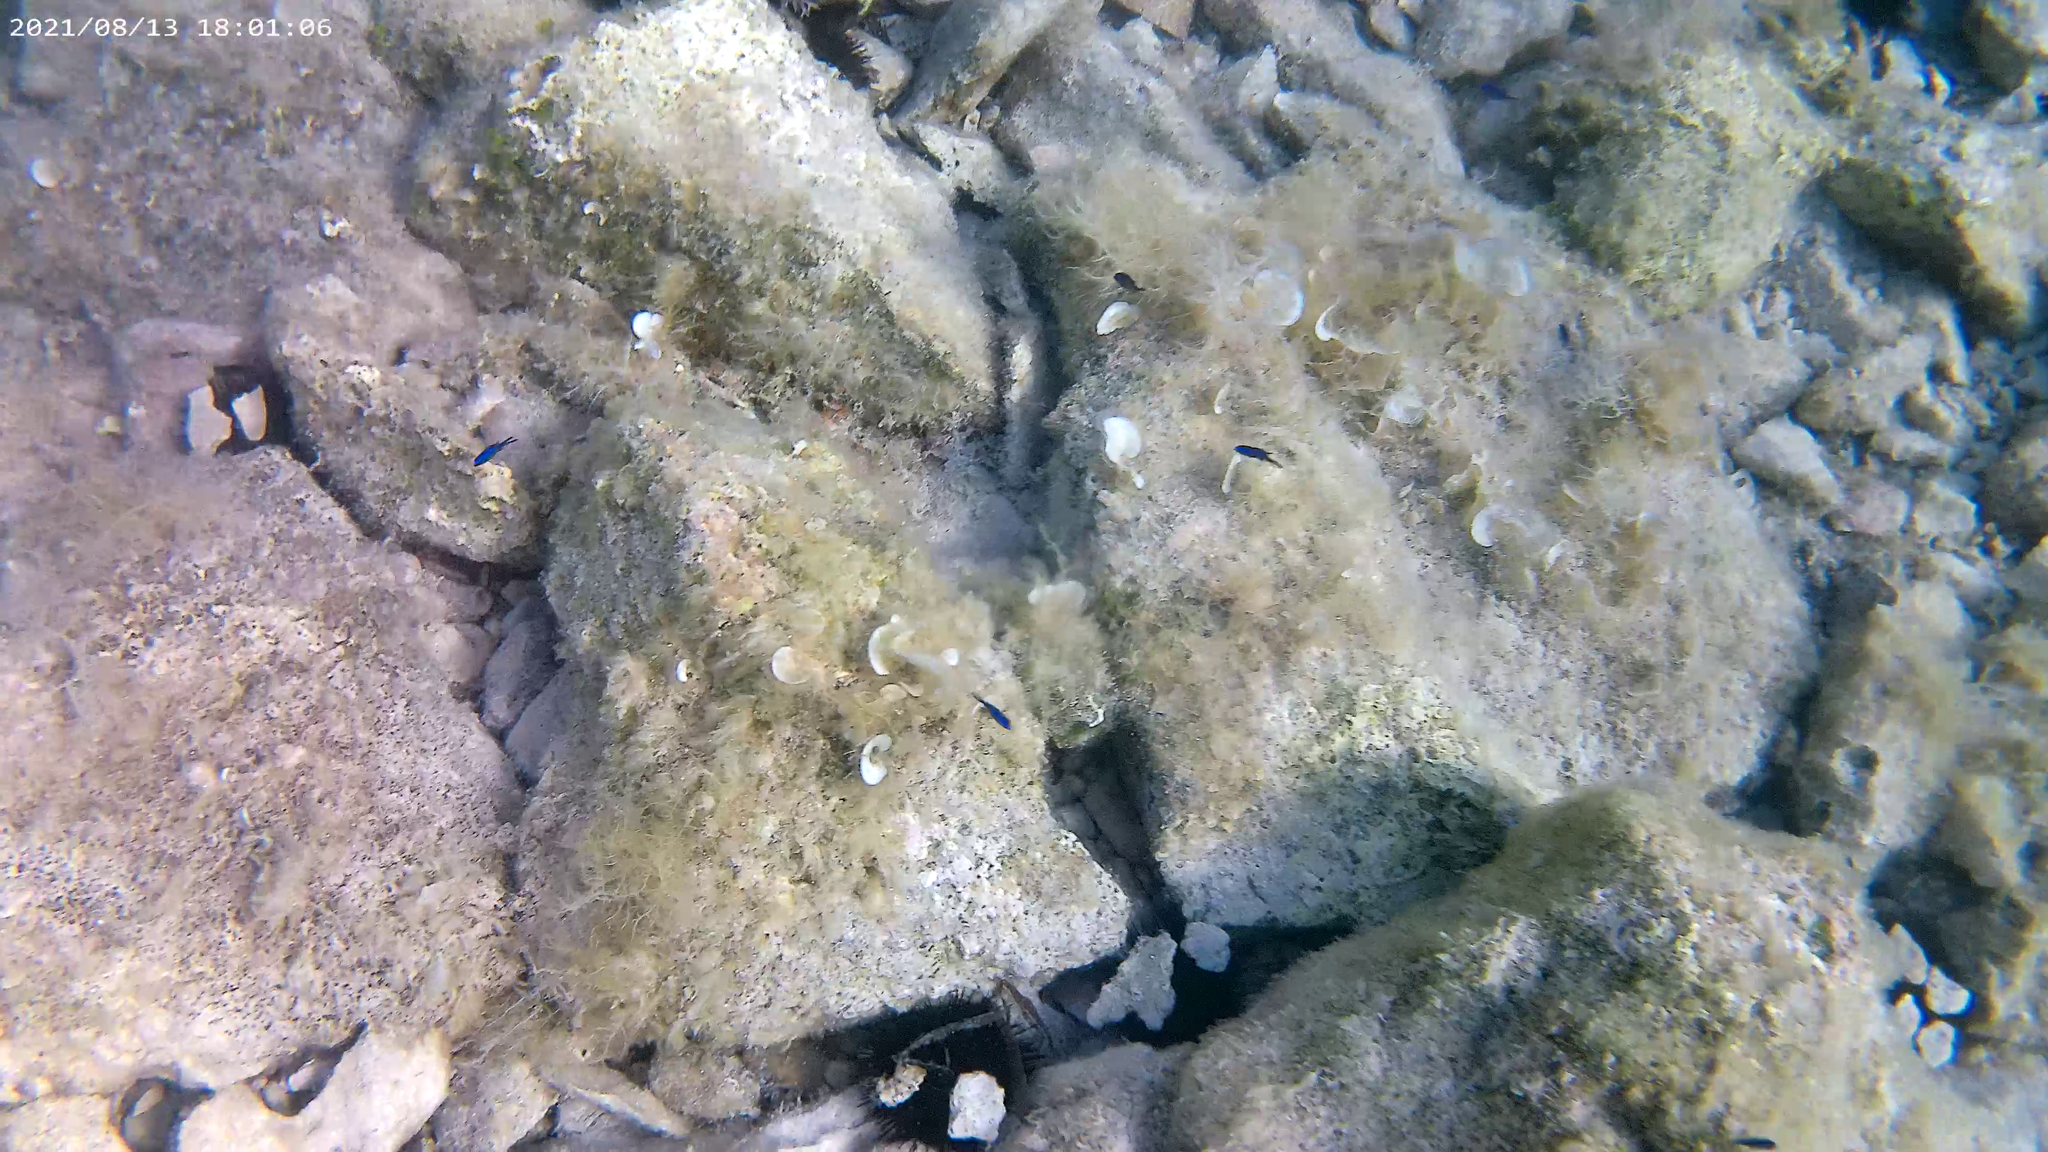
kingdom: Animalia
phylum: Chordata
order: Perciformes
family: Pomacentridae
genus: Chromis
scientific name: Chromis chromis
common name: Damselfish
